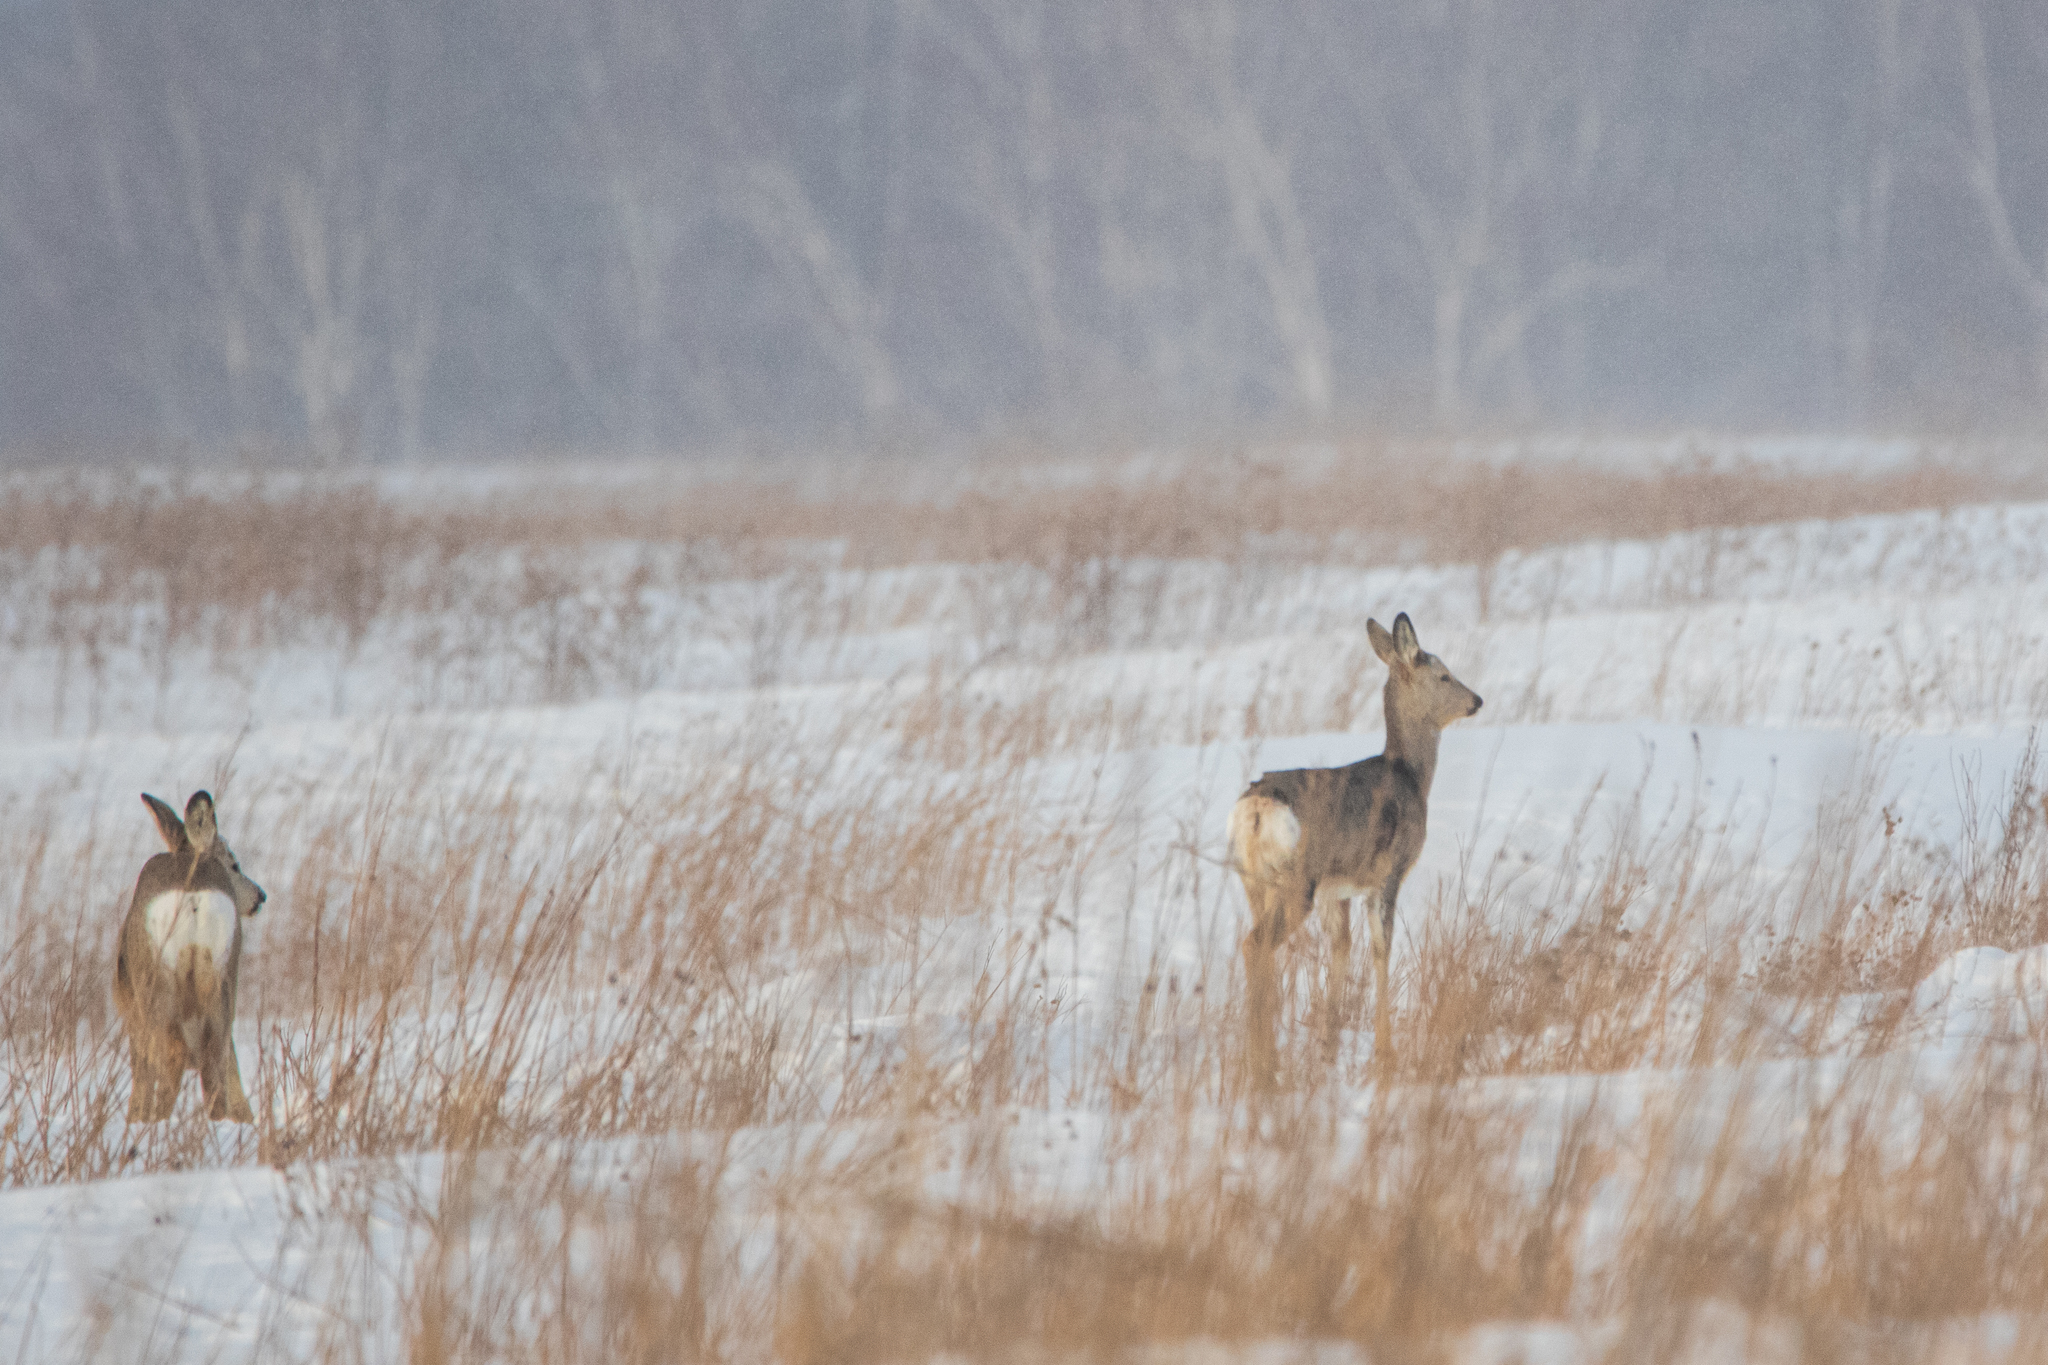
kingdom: Animalia
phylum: Chordata
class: Mammalia
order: Artiodactyla
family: Cervidae
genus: Capreolus
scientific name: Capreolus pygargus
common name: Siberian roe
